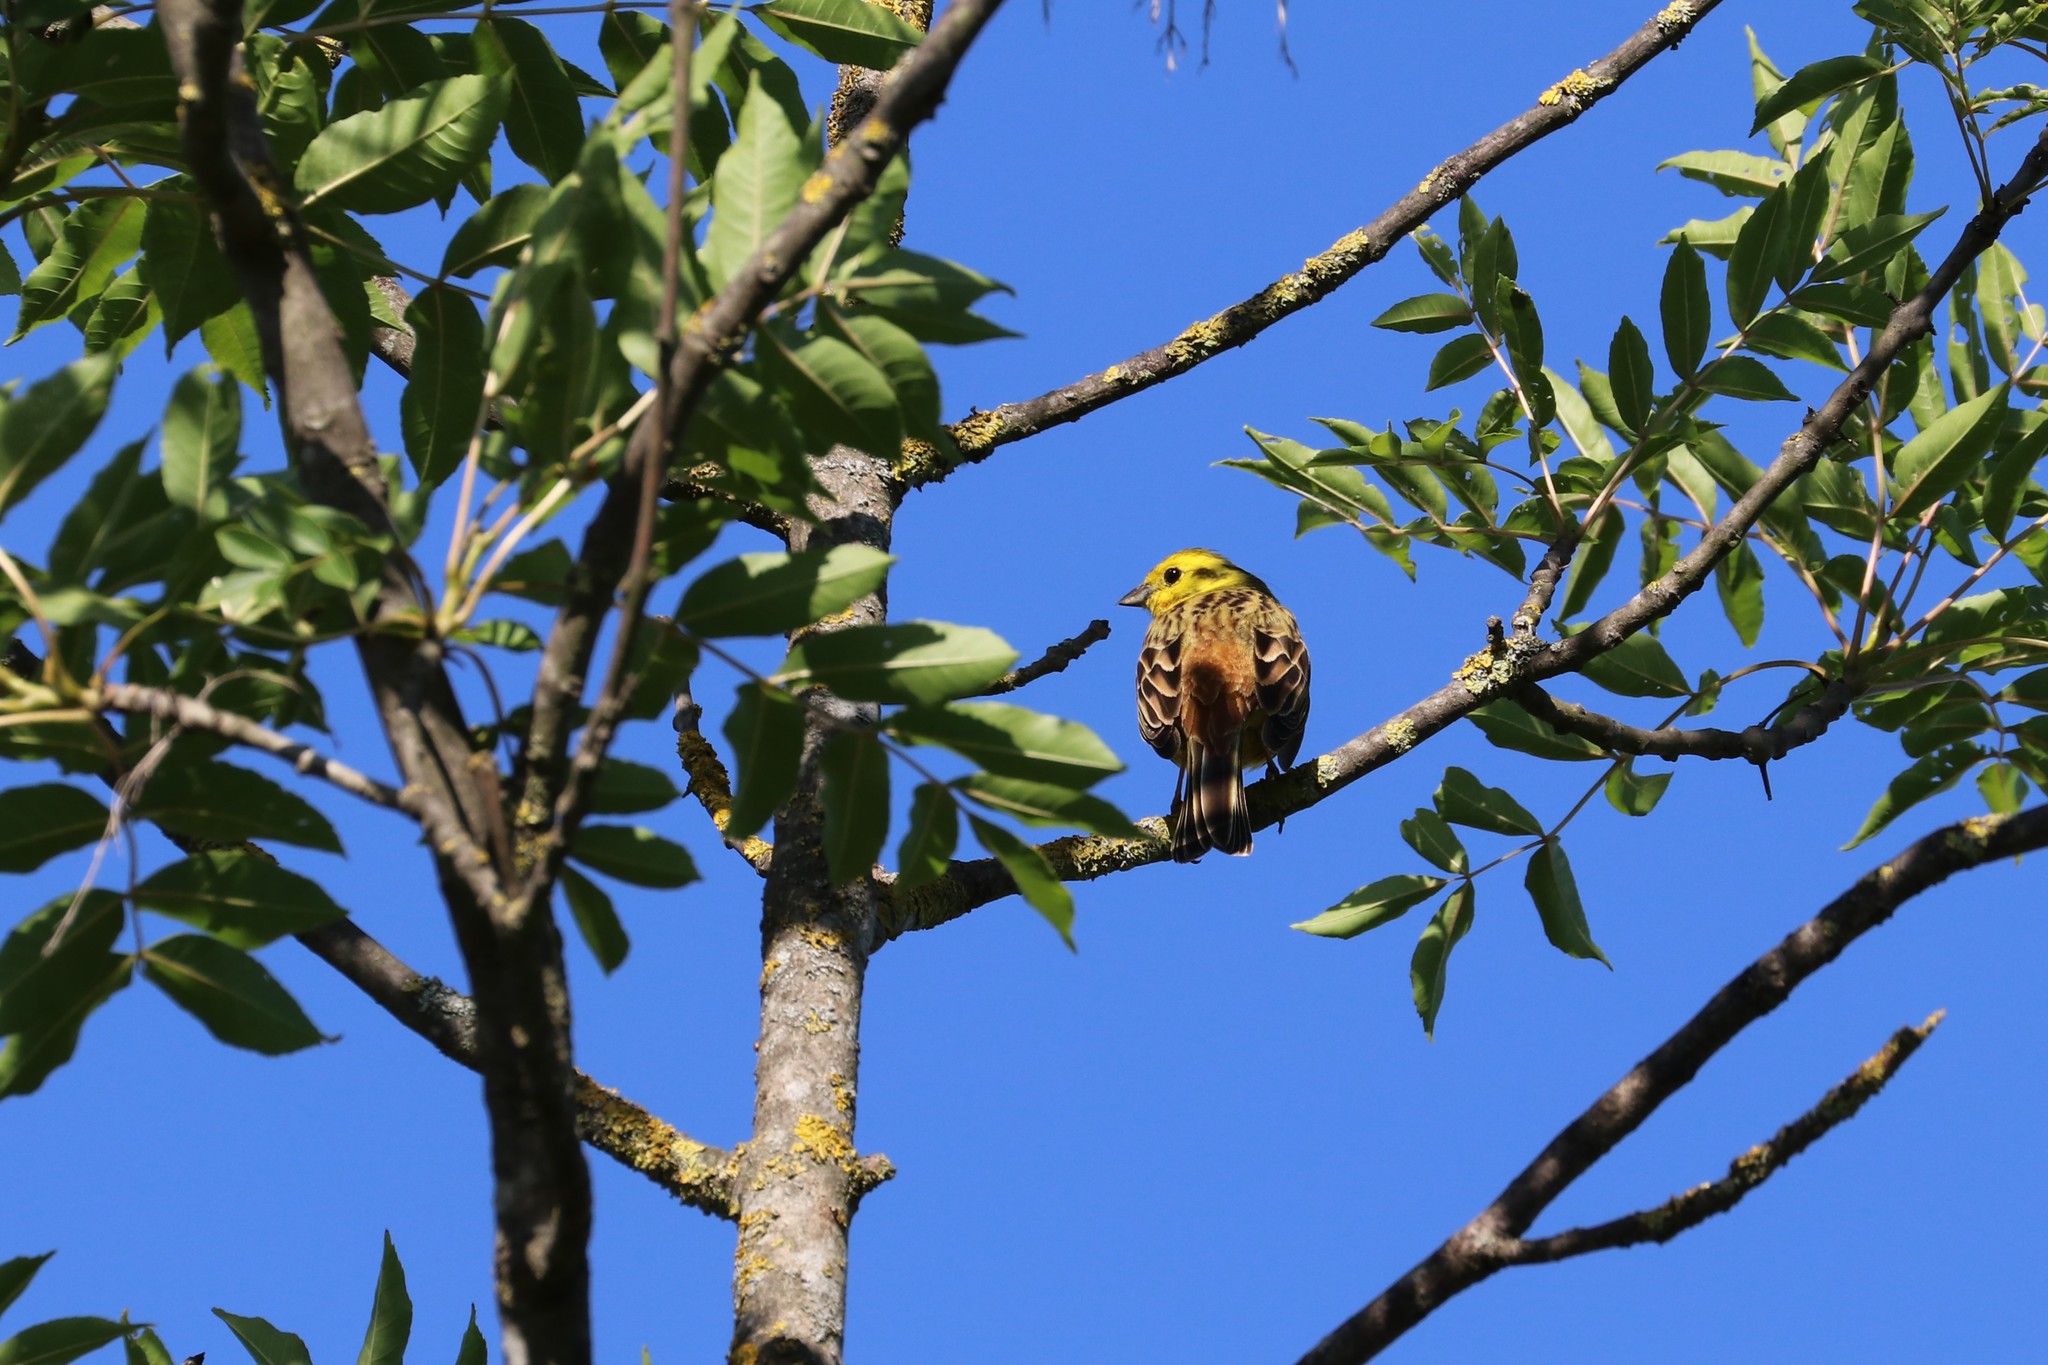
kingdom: Animalia
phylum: Chordata
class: Aves
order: Passeriformes
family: Emberizidae
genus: Emberiza
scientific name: Emberiza citrinella
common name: Yellowhammer
